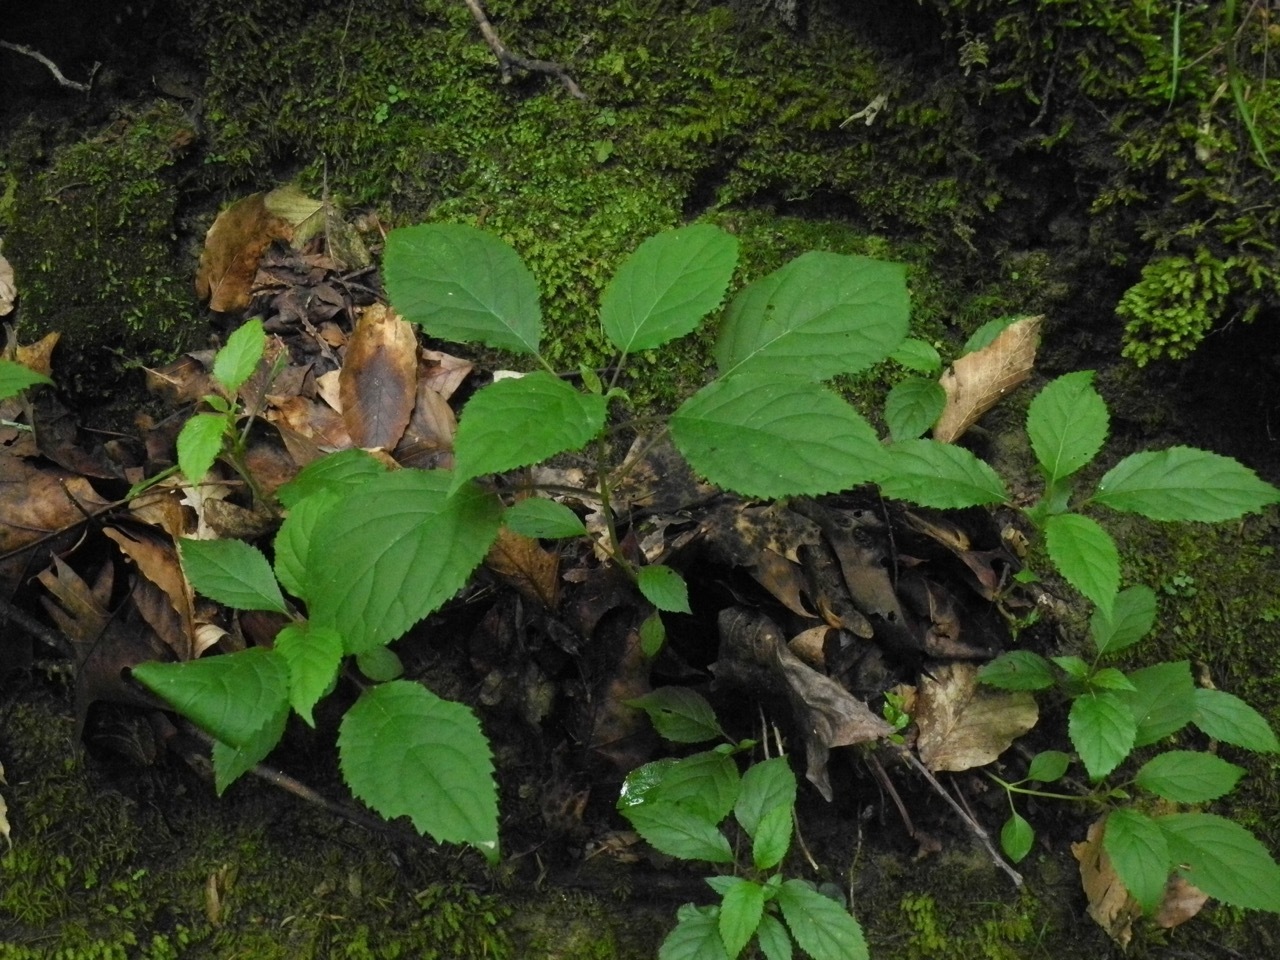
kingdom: Plantae
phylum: Tracheophyta
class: Magnoliopsida
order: Lamiales
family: Lamiaceae
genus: Collinsonia
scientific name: Collinsonia canadensis
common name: Northern horsebalm
